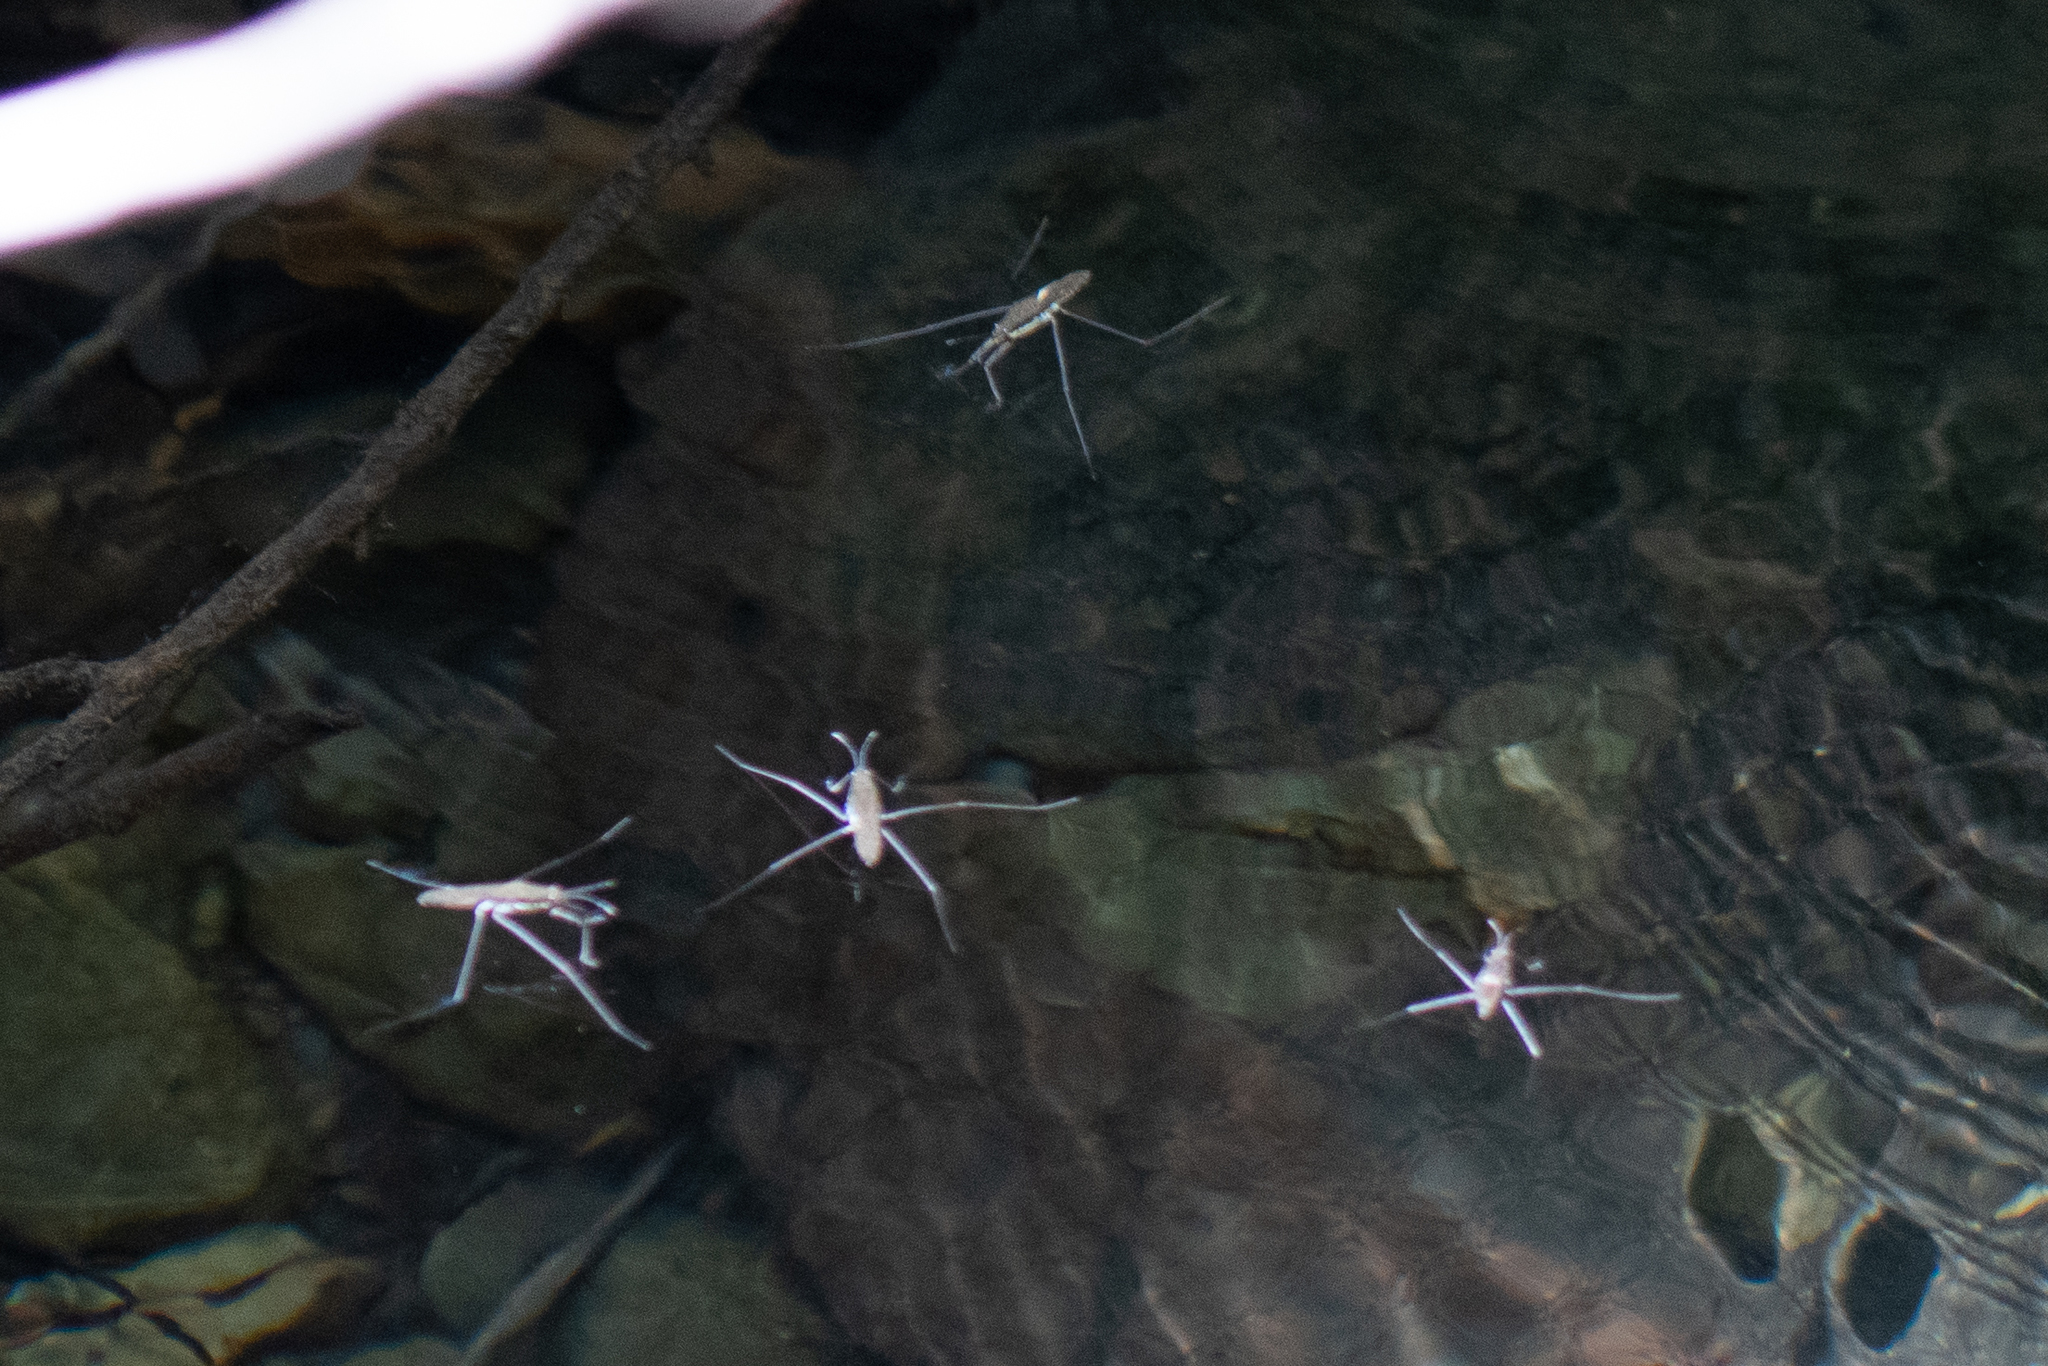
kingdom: Animalia
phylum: Arthropoda
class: Insecta
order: Hemiptera
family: Gerridae
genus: Aquarius
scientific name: Aquarius remigis
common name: Common water strider
